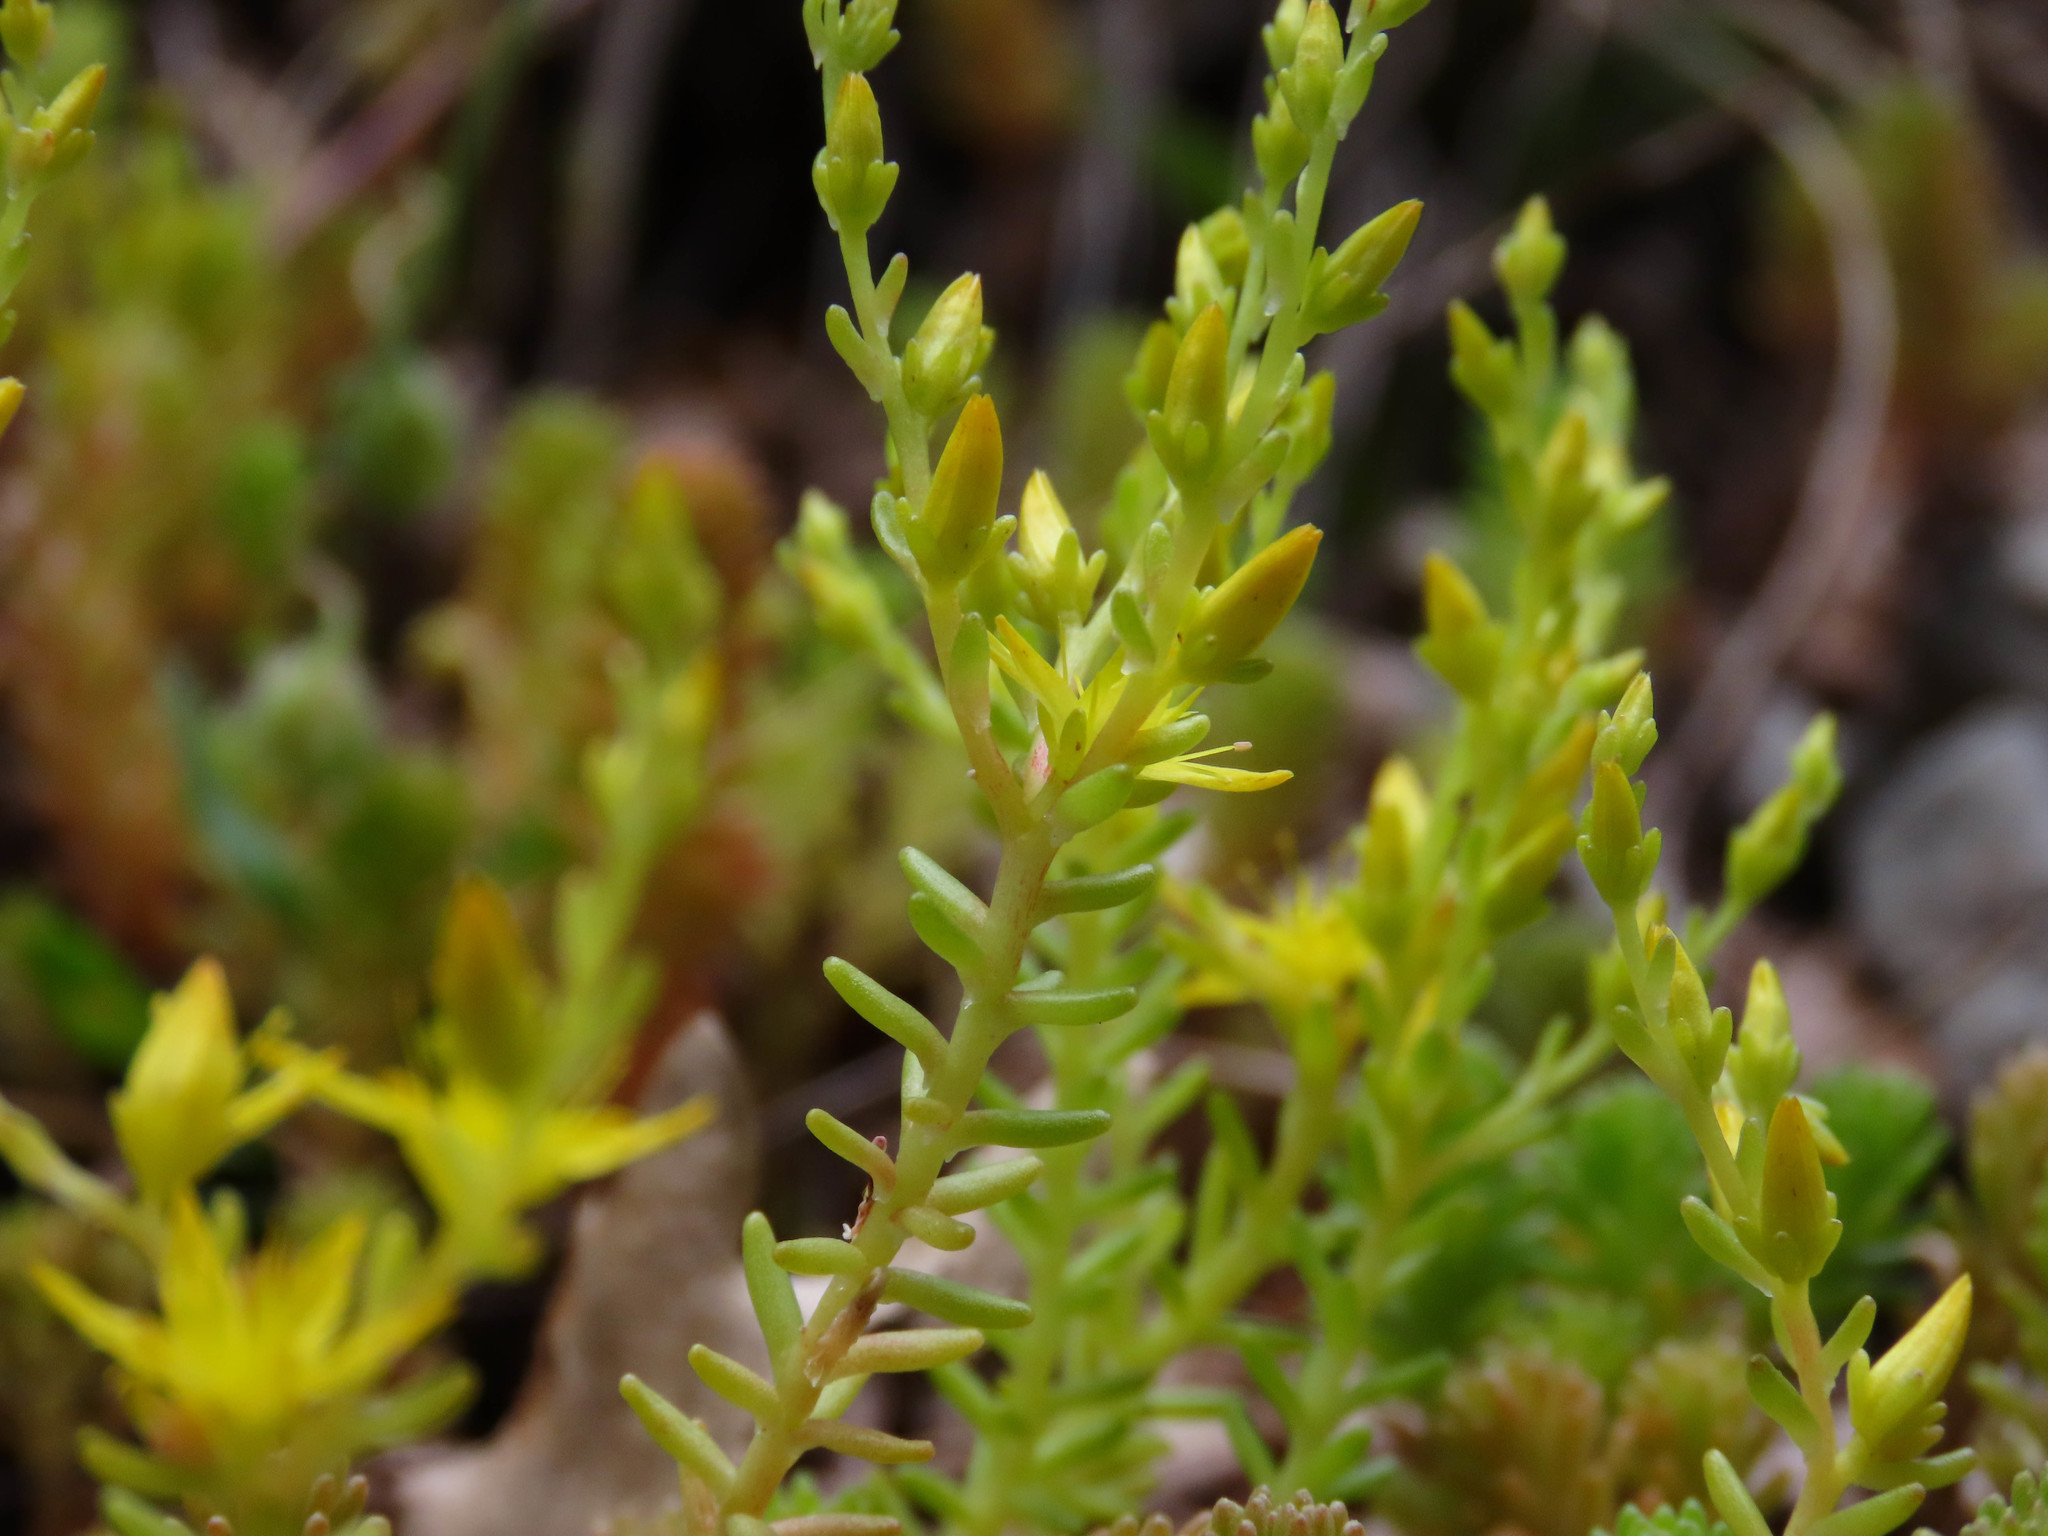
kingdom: Plantae
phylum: Tracheophyta
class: Magnoliopsida
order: Saxifragales
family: Crassulaceae
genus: Sedum
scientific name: Sedum sexangulare
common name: Tasteless stonecrop
